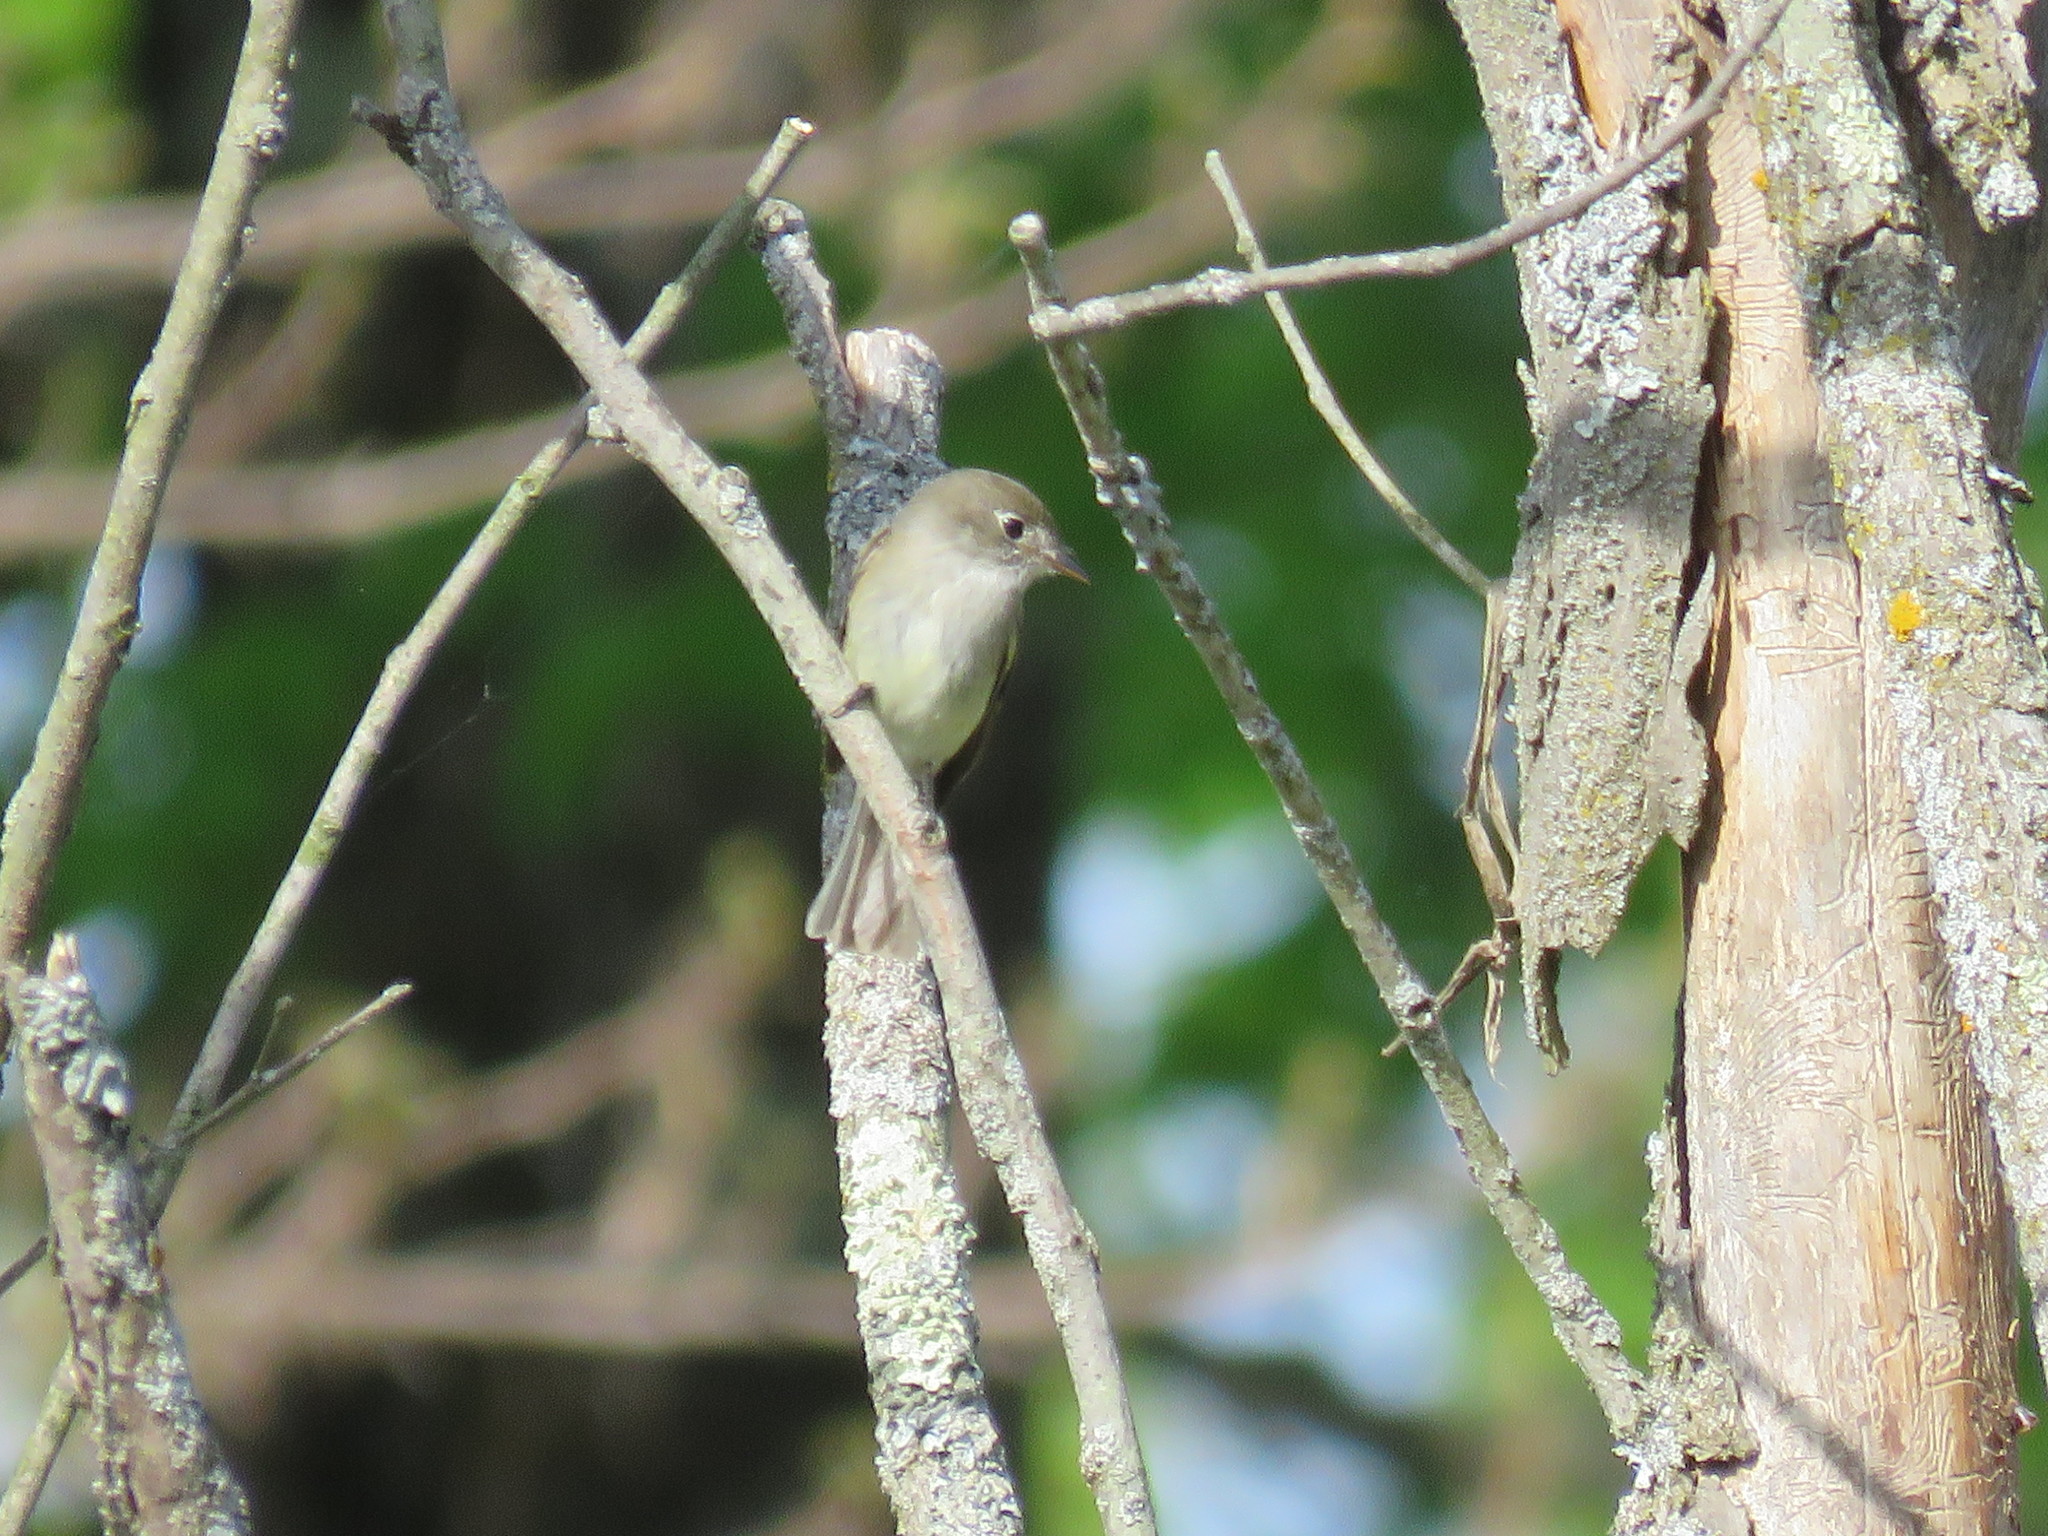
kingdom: Animalia
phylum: Chordata
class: Aves
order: Passeriformes
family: Tyrannidae
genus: Empidonax
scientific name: Empidonax minimus
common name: Least flycatcher
